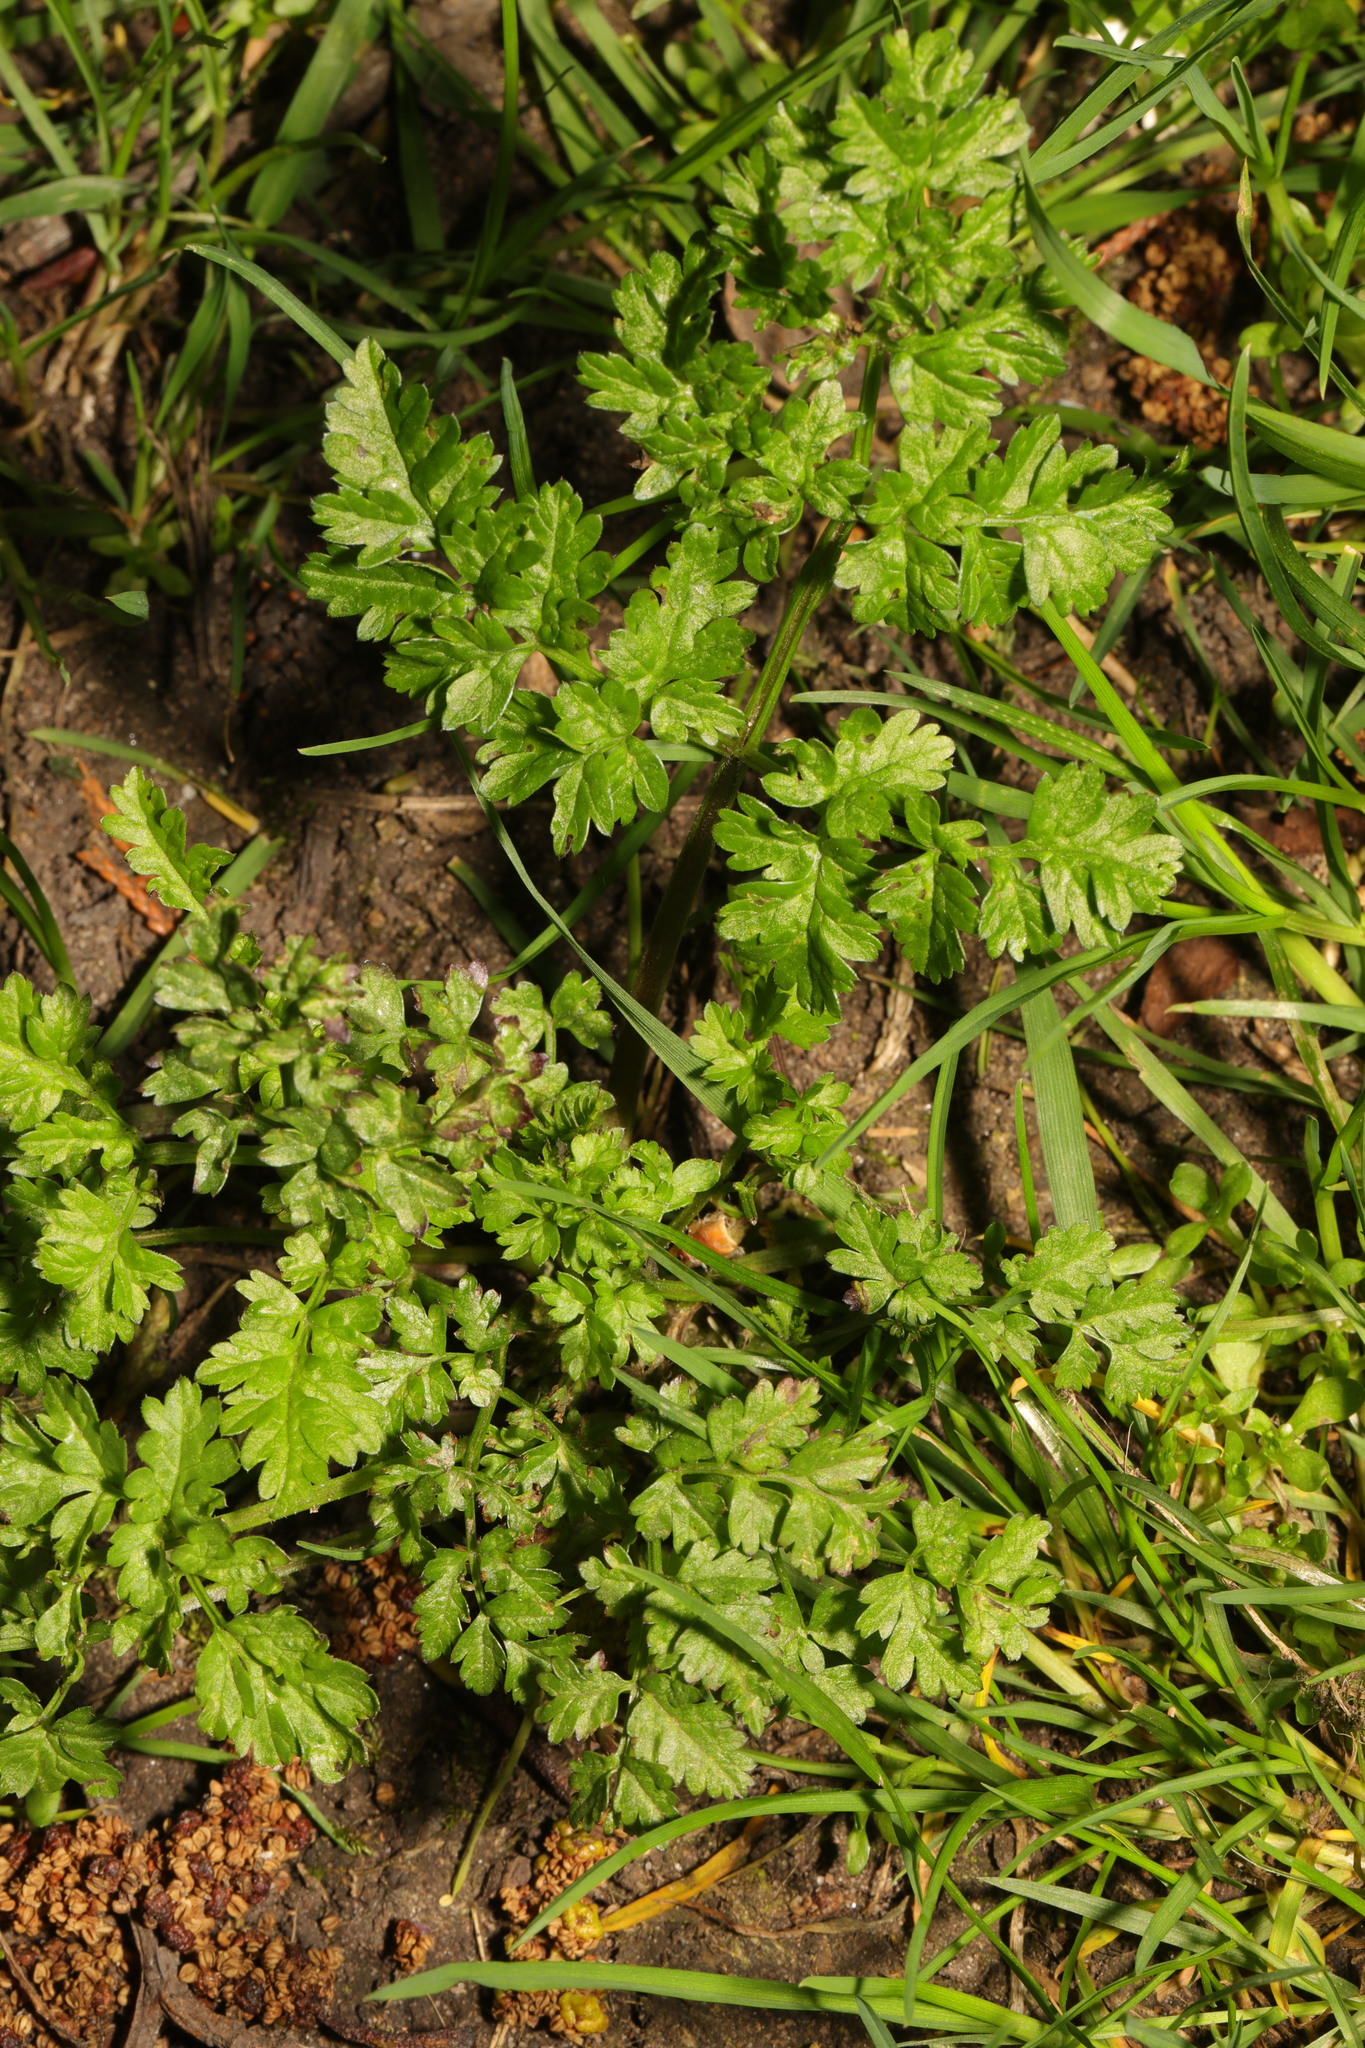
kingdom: Plantae
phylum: Tracheophyta
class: Magnoliopsida
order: Apiales
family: Apiaceae
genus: Anthriscus
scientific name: Anthriscus sylvestris
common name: Cow parsley
